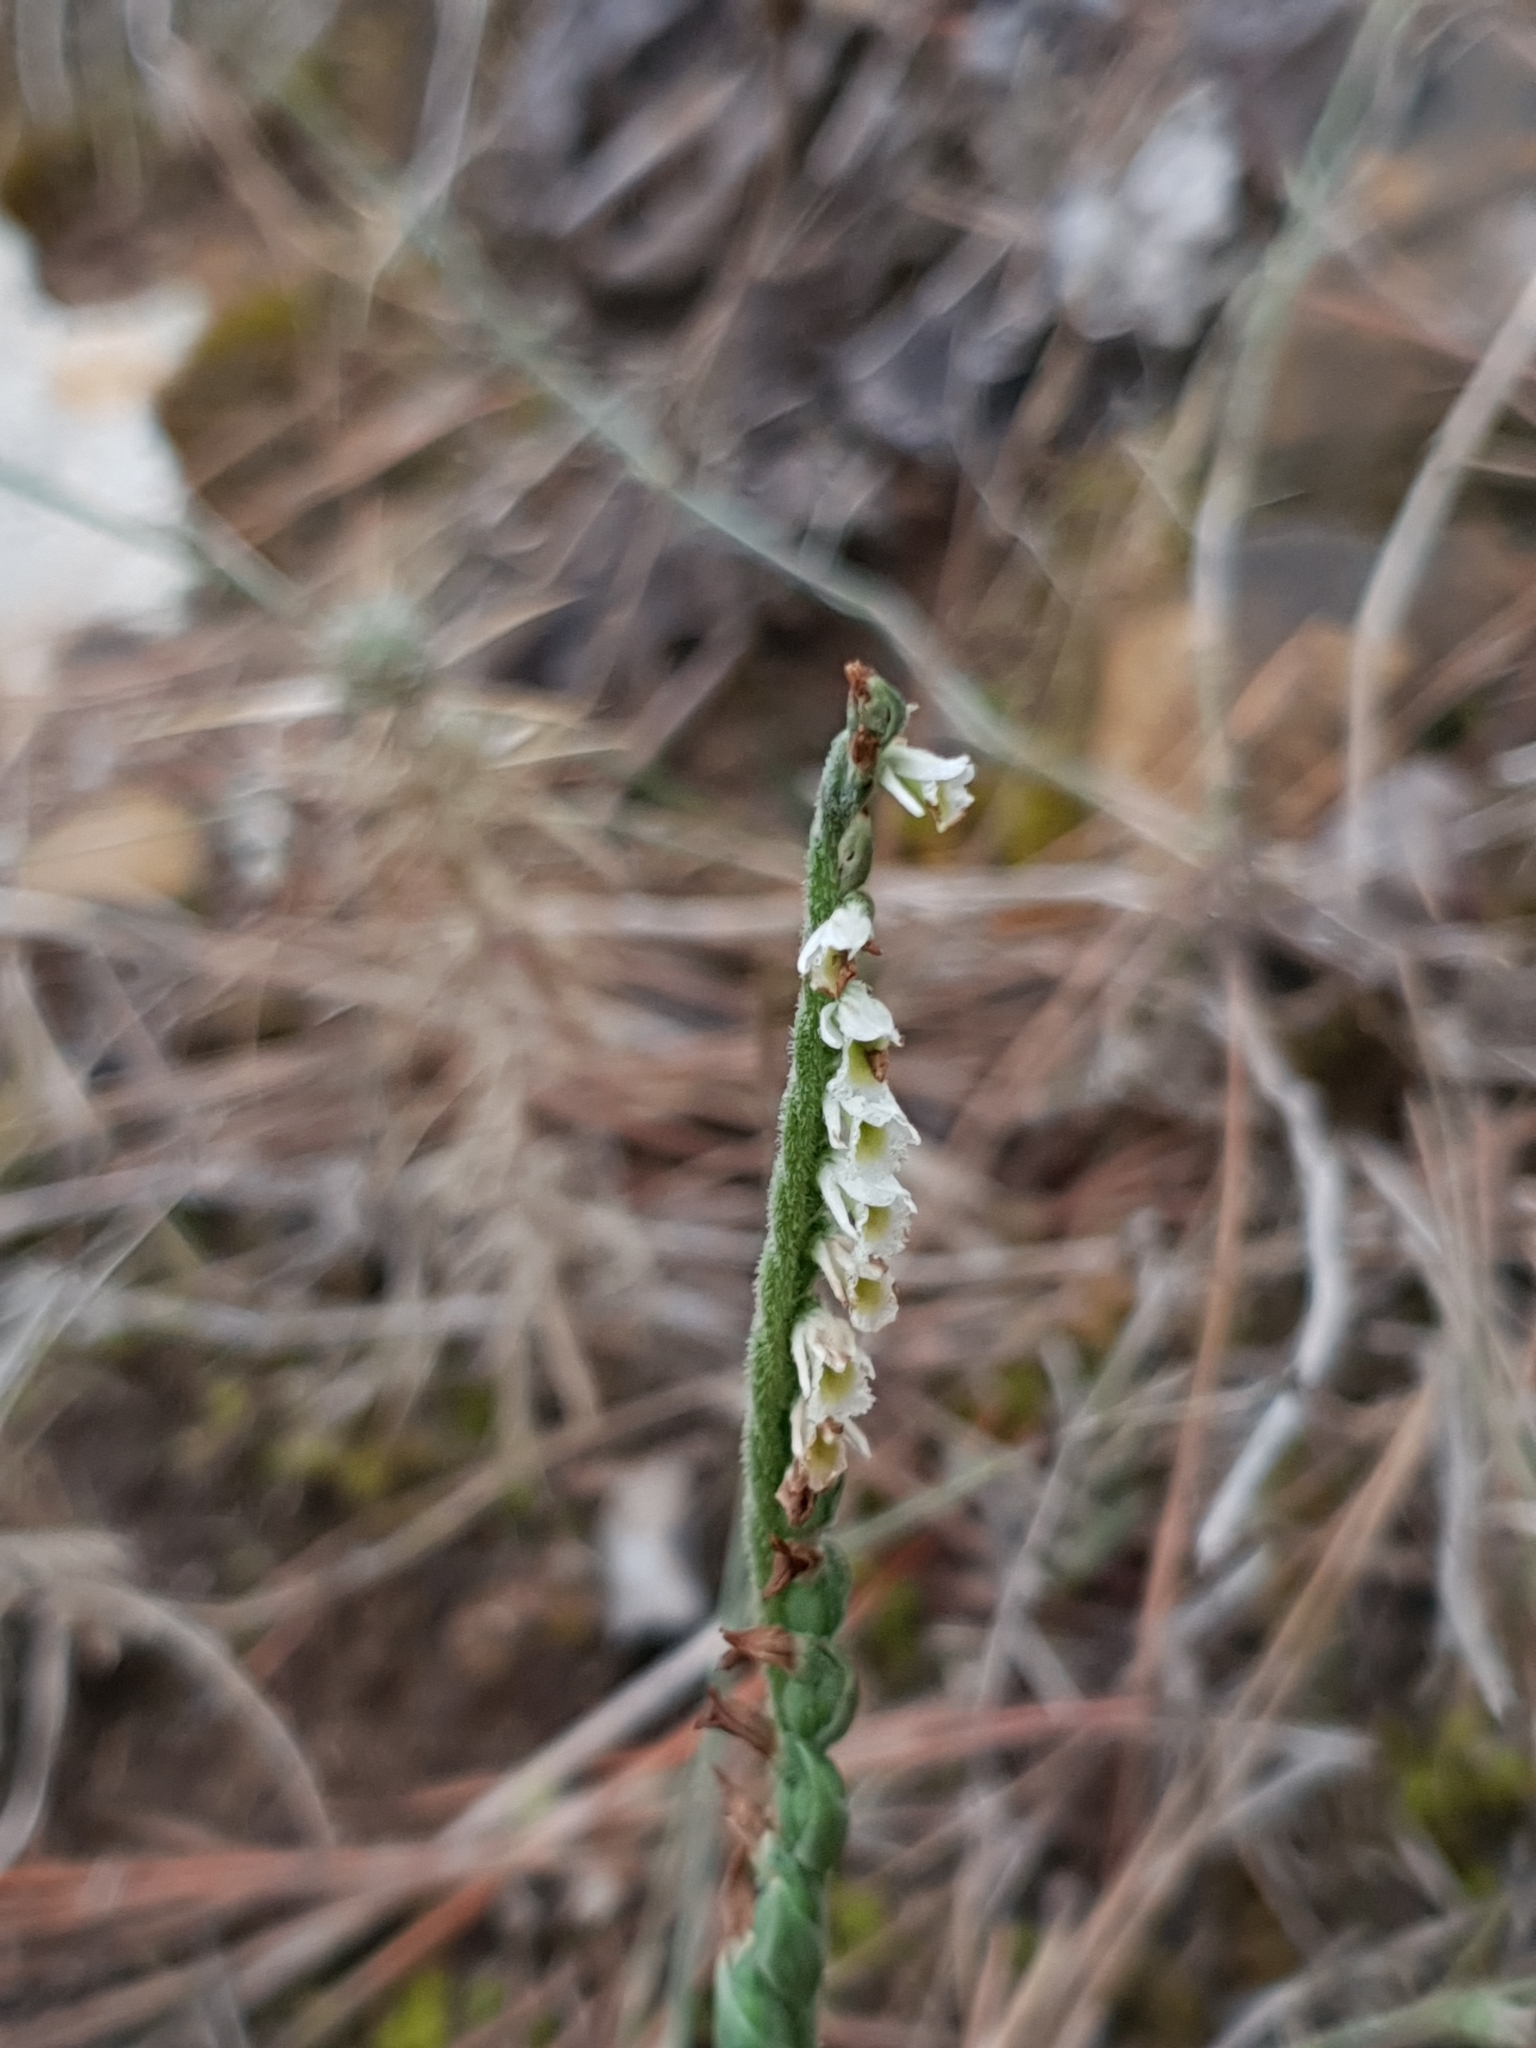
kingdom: Plantae
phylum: Tracheophyta
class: Liliopsida
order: Asparagales
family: Orchidaceae
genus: Spiranthes
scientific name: Spiranthes spiralis
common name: Autumn lady's-tresses
